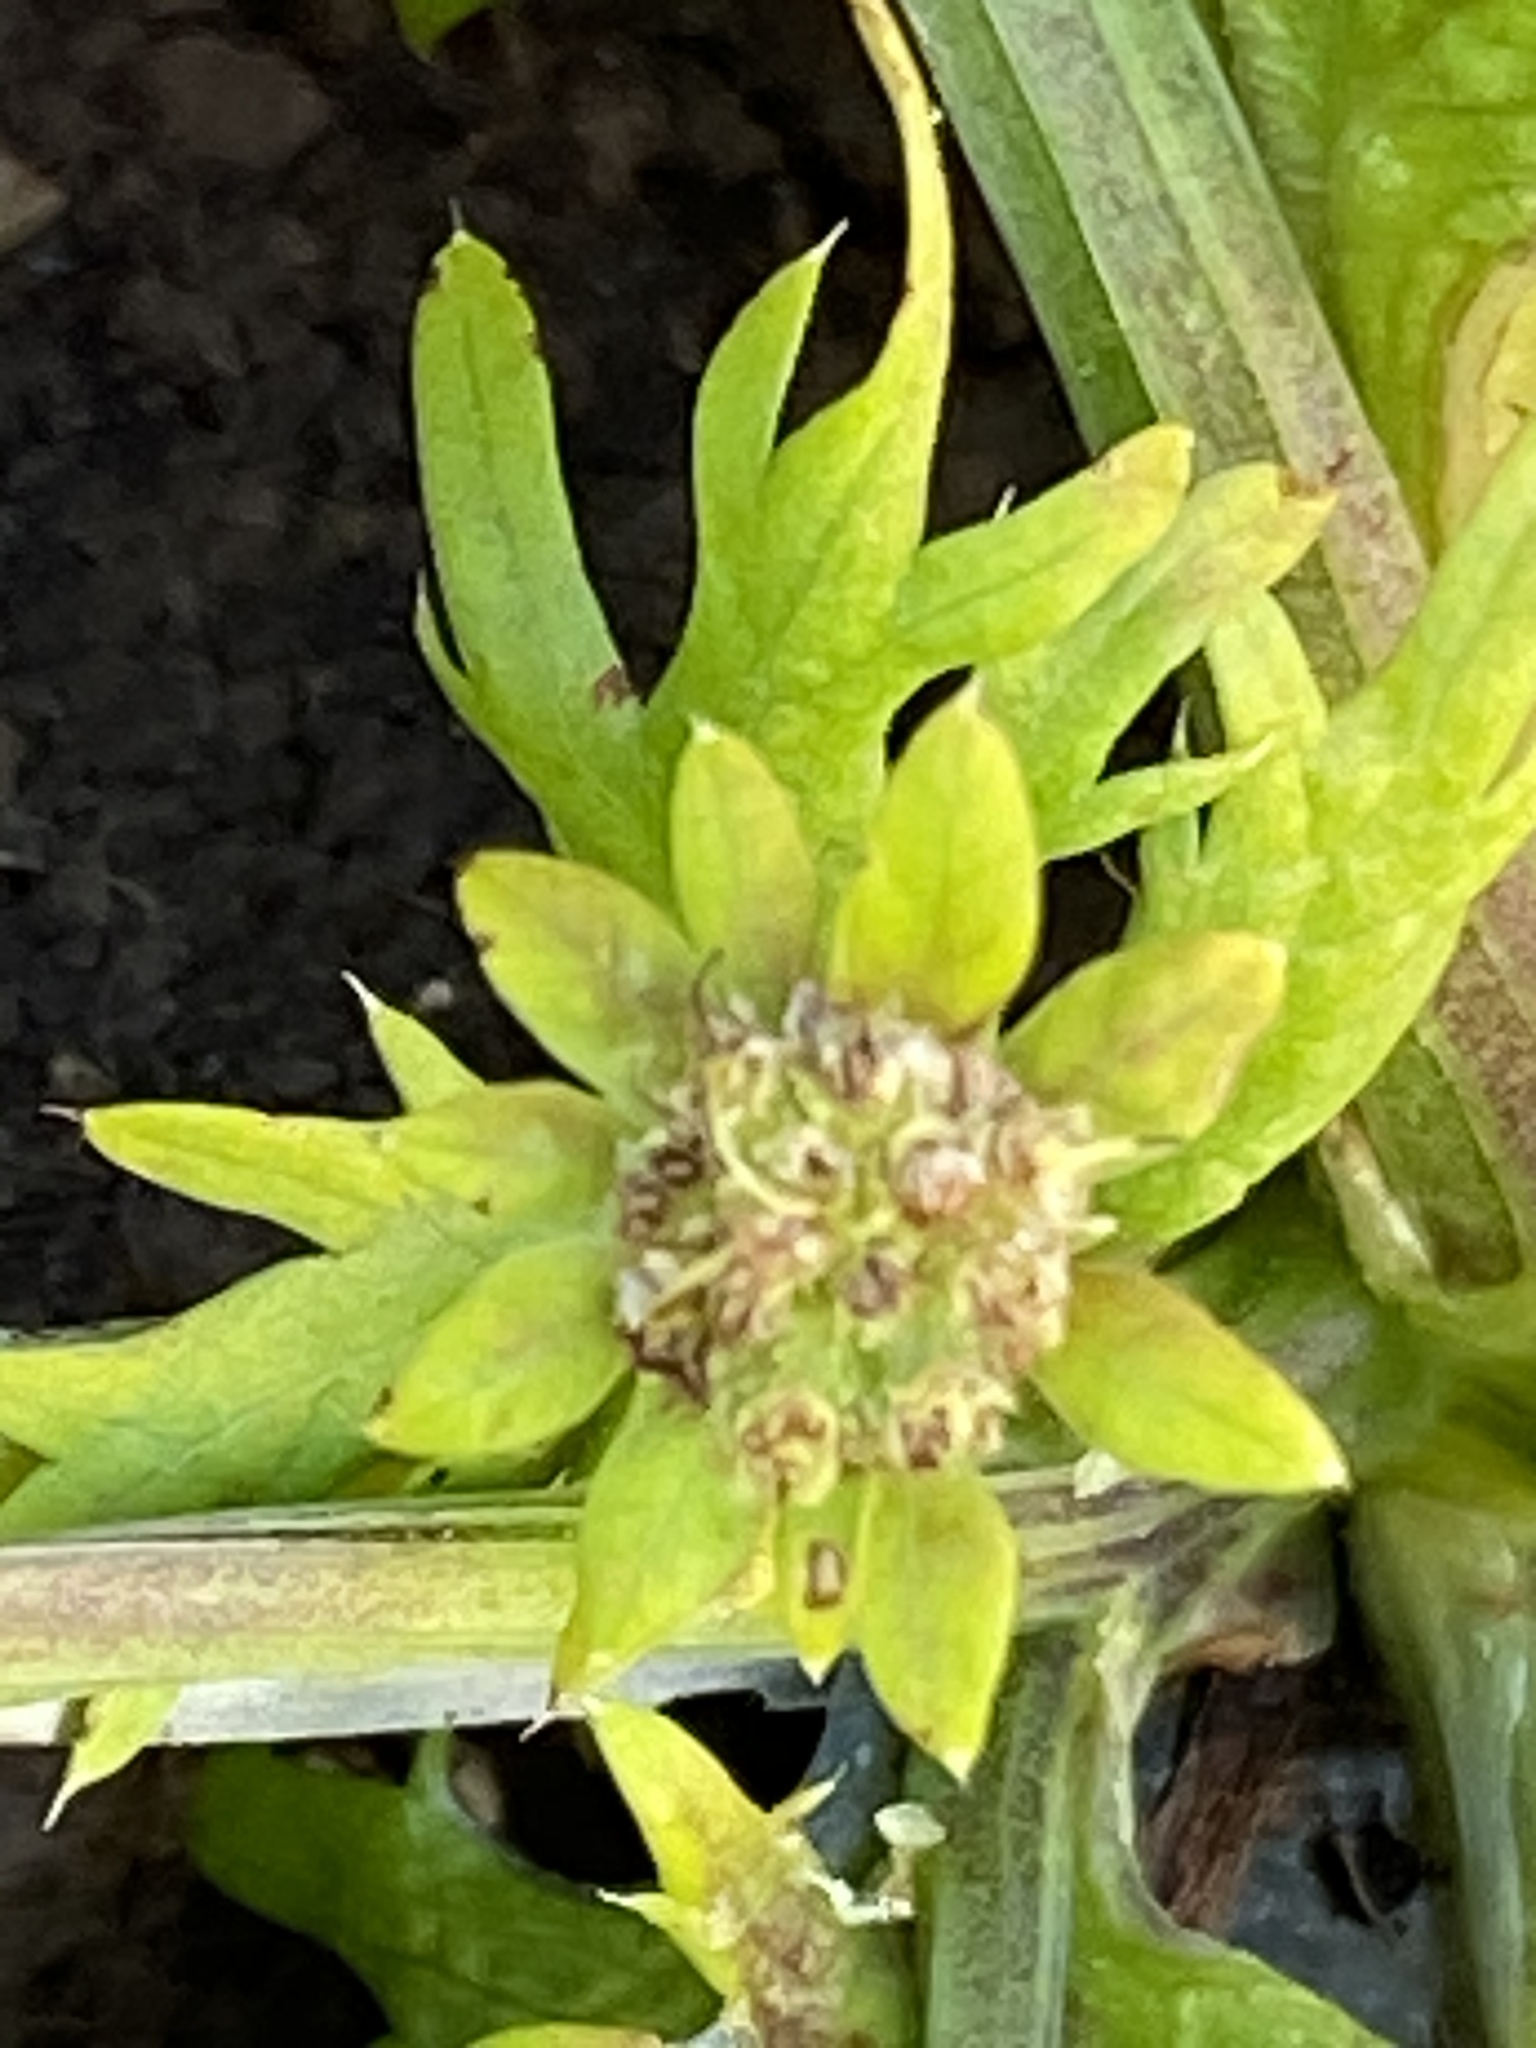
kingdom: Plantae
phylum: Tracheophyta
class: Magnoliopsida
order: Apiales
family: Apiaceae
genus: Sanicula
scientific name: Sanicula arctopoides
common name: Footsteps-of-spring
